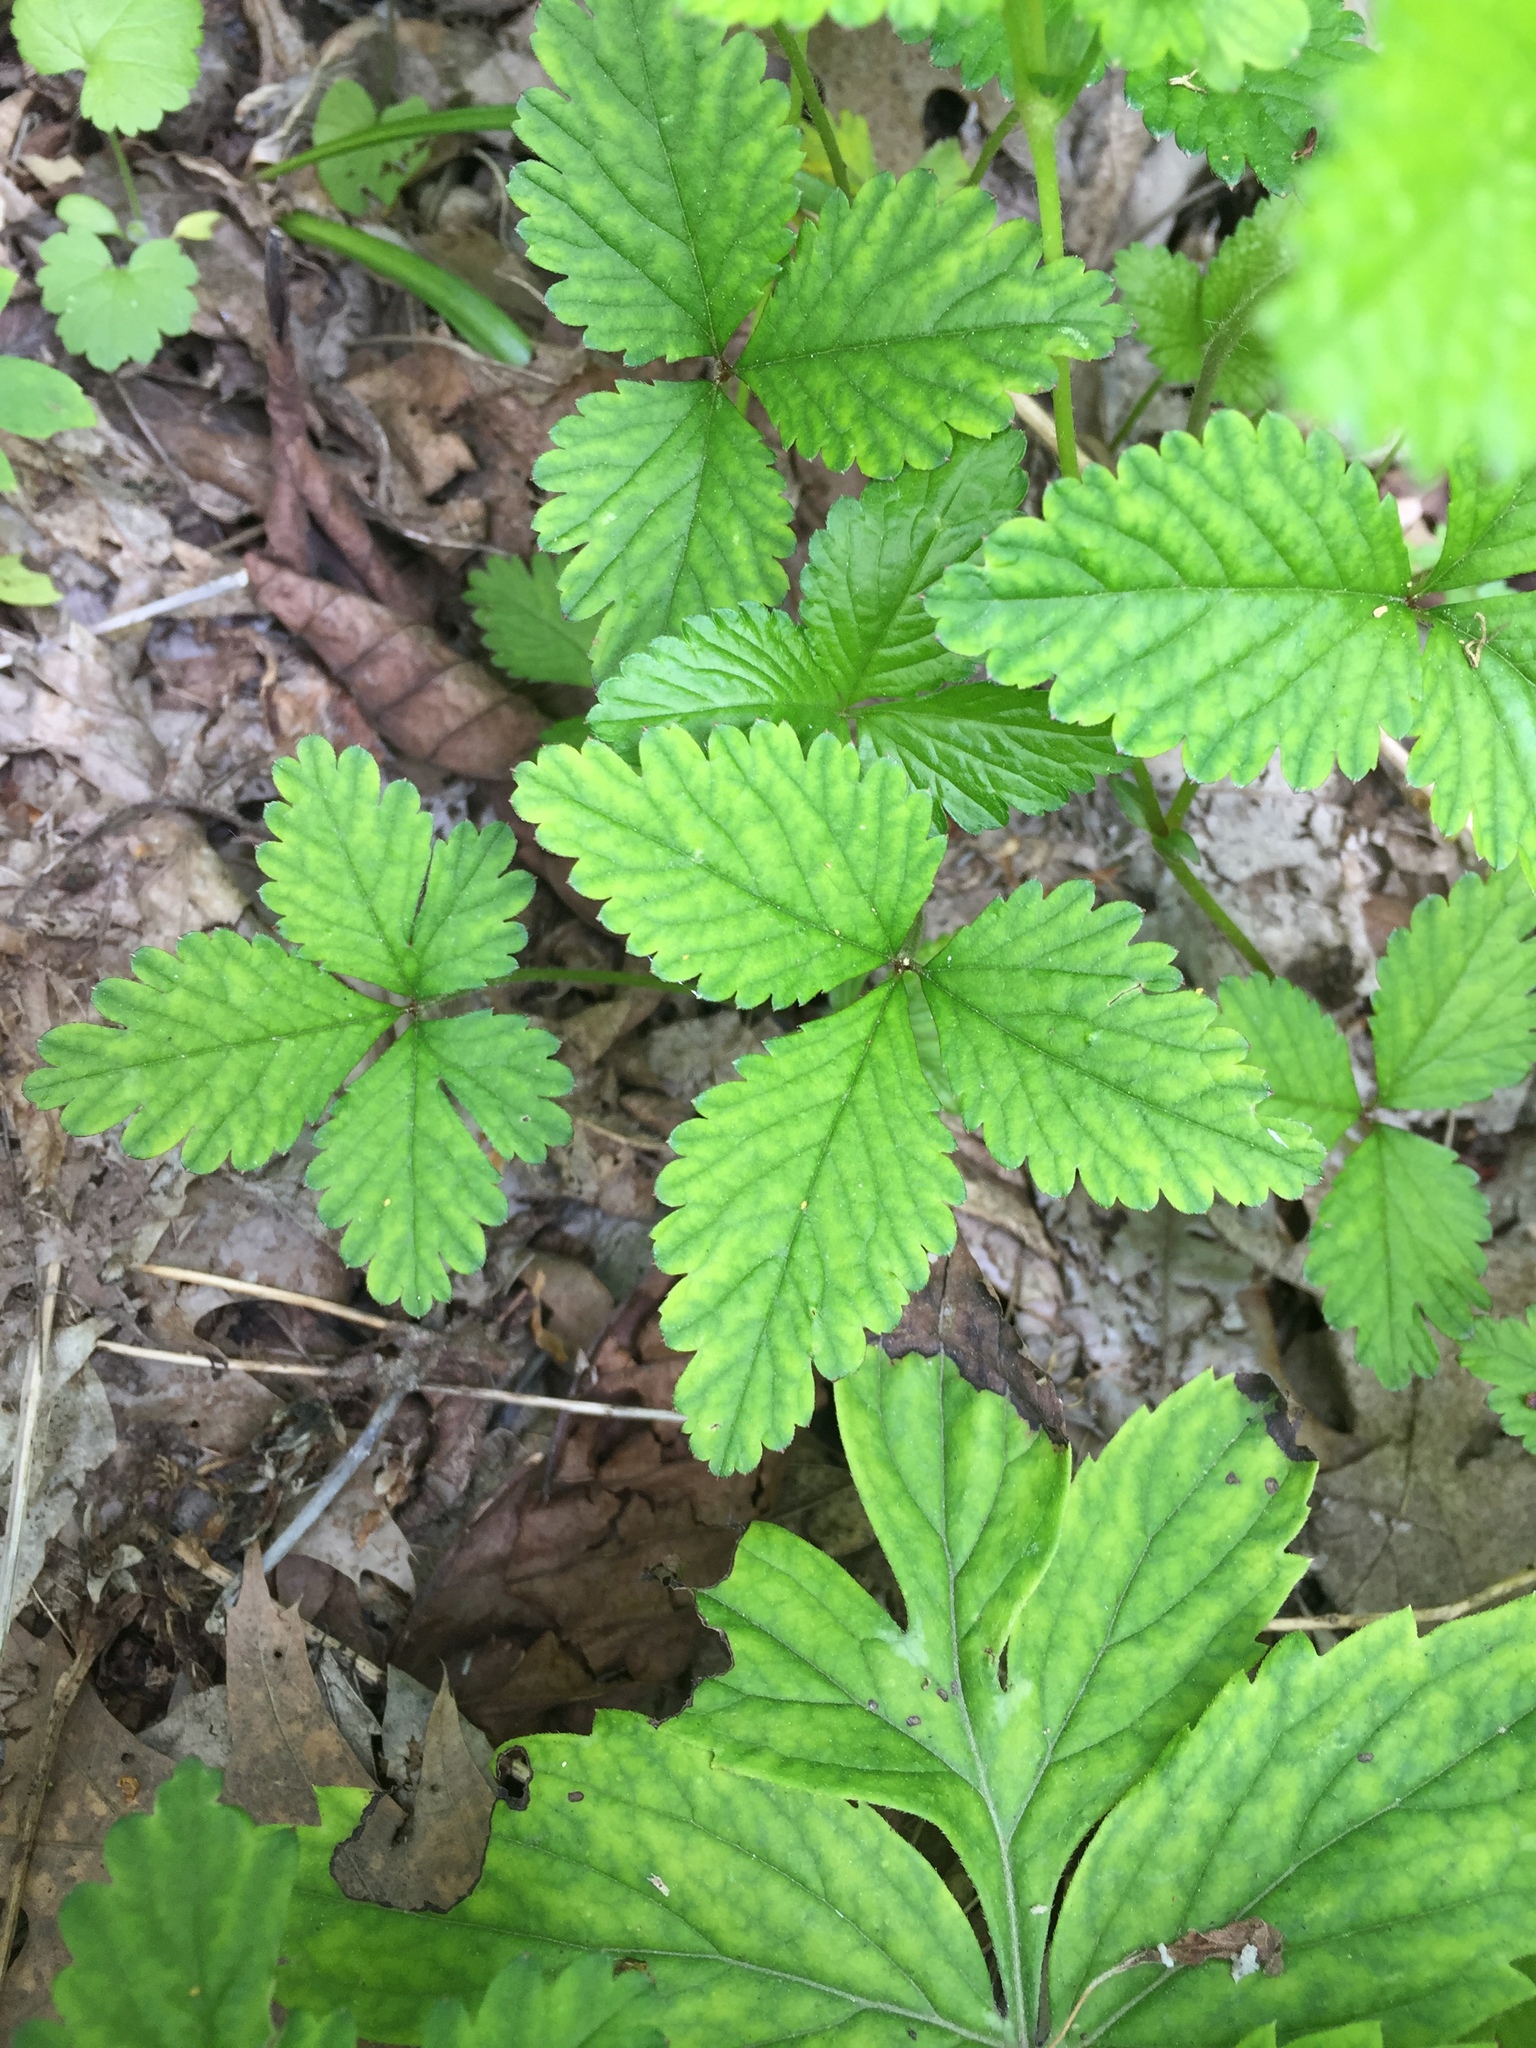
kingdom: Plantae
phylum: Tracheophyta
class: Magnoliopsida
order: Rosales
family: Rosaceae
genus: Potentilla
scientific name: Potentilla indica
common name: Yellow-flowered strawberry
